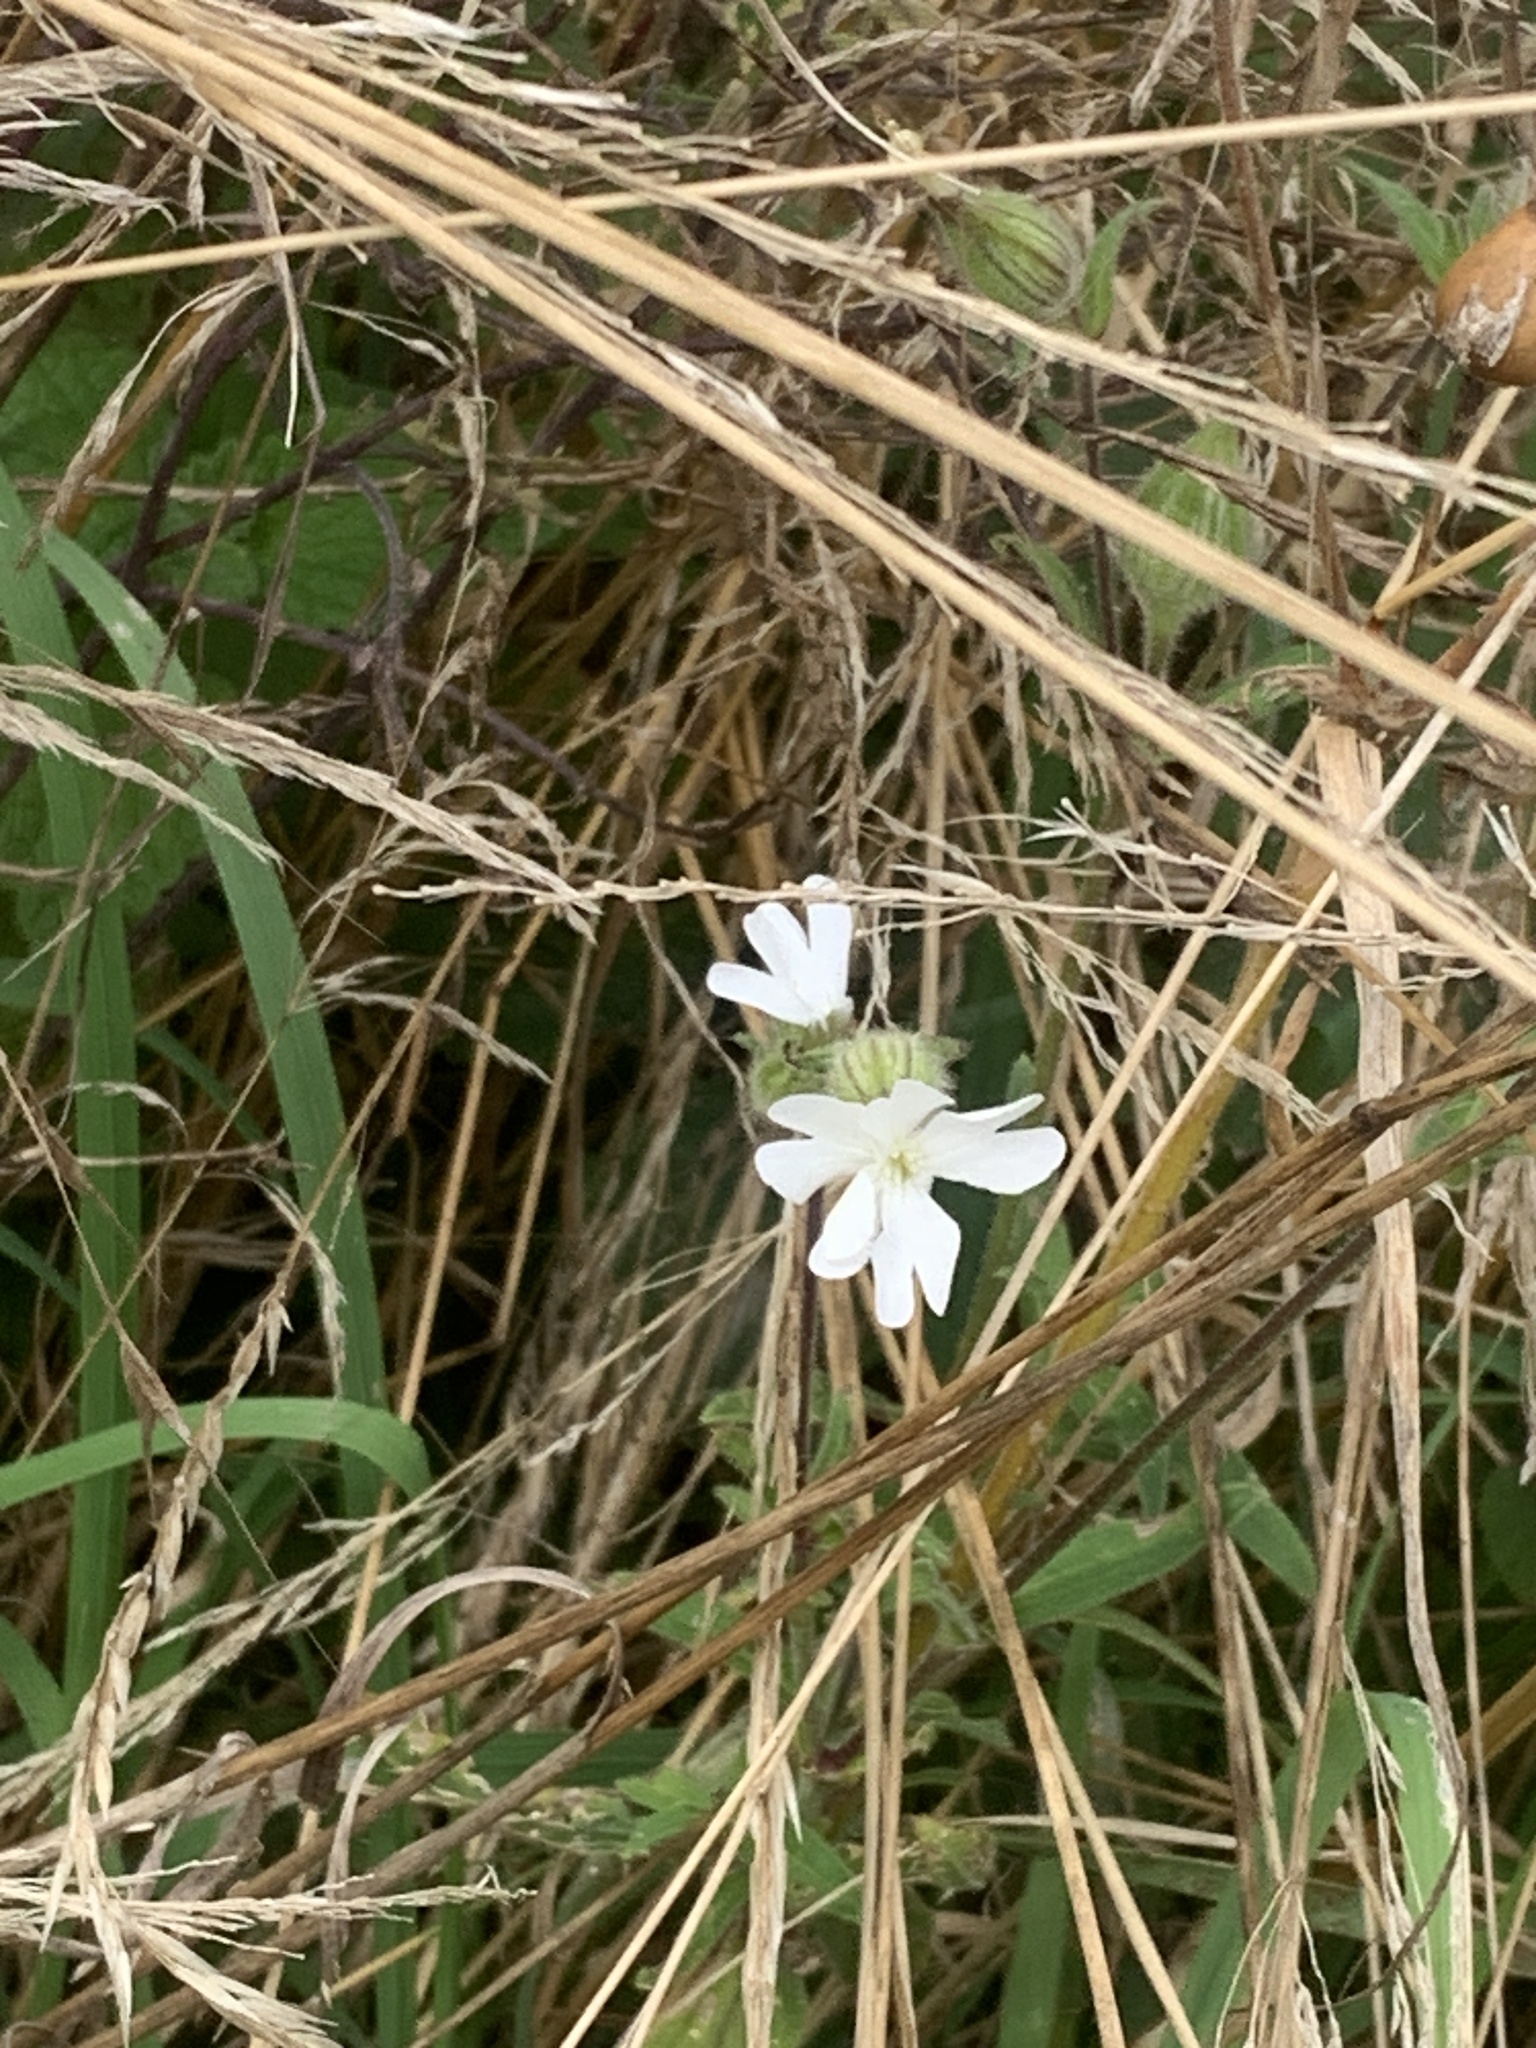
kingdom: Plantae
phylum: Tracheophyta
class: Magnoliopsida
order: Caryophyllales
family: Caryophyllaceae
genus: Silene
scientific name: Silene latifolia
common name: White campion
